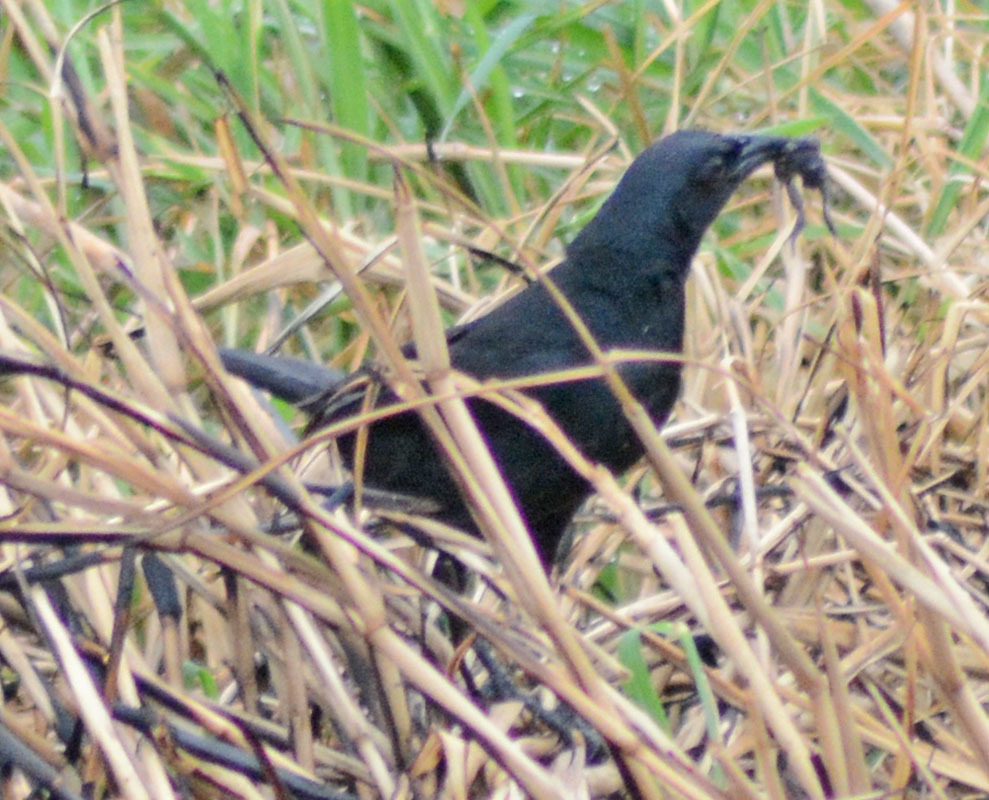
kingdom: Animalia
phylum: Chordata
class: Aves
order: Passeriformes
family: Icteridae
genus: Dives
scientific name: Dives dives
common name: Melodious blackbird
